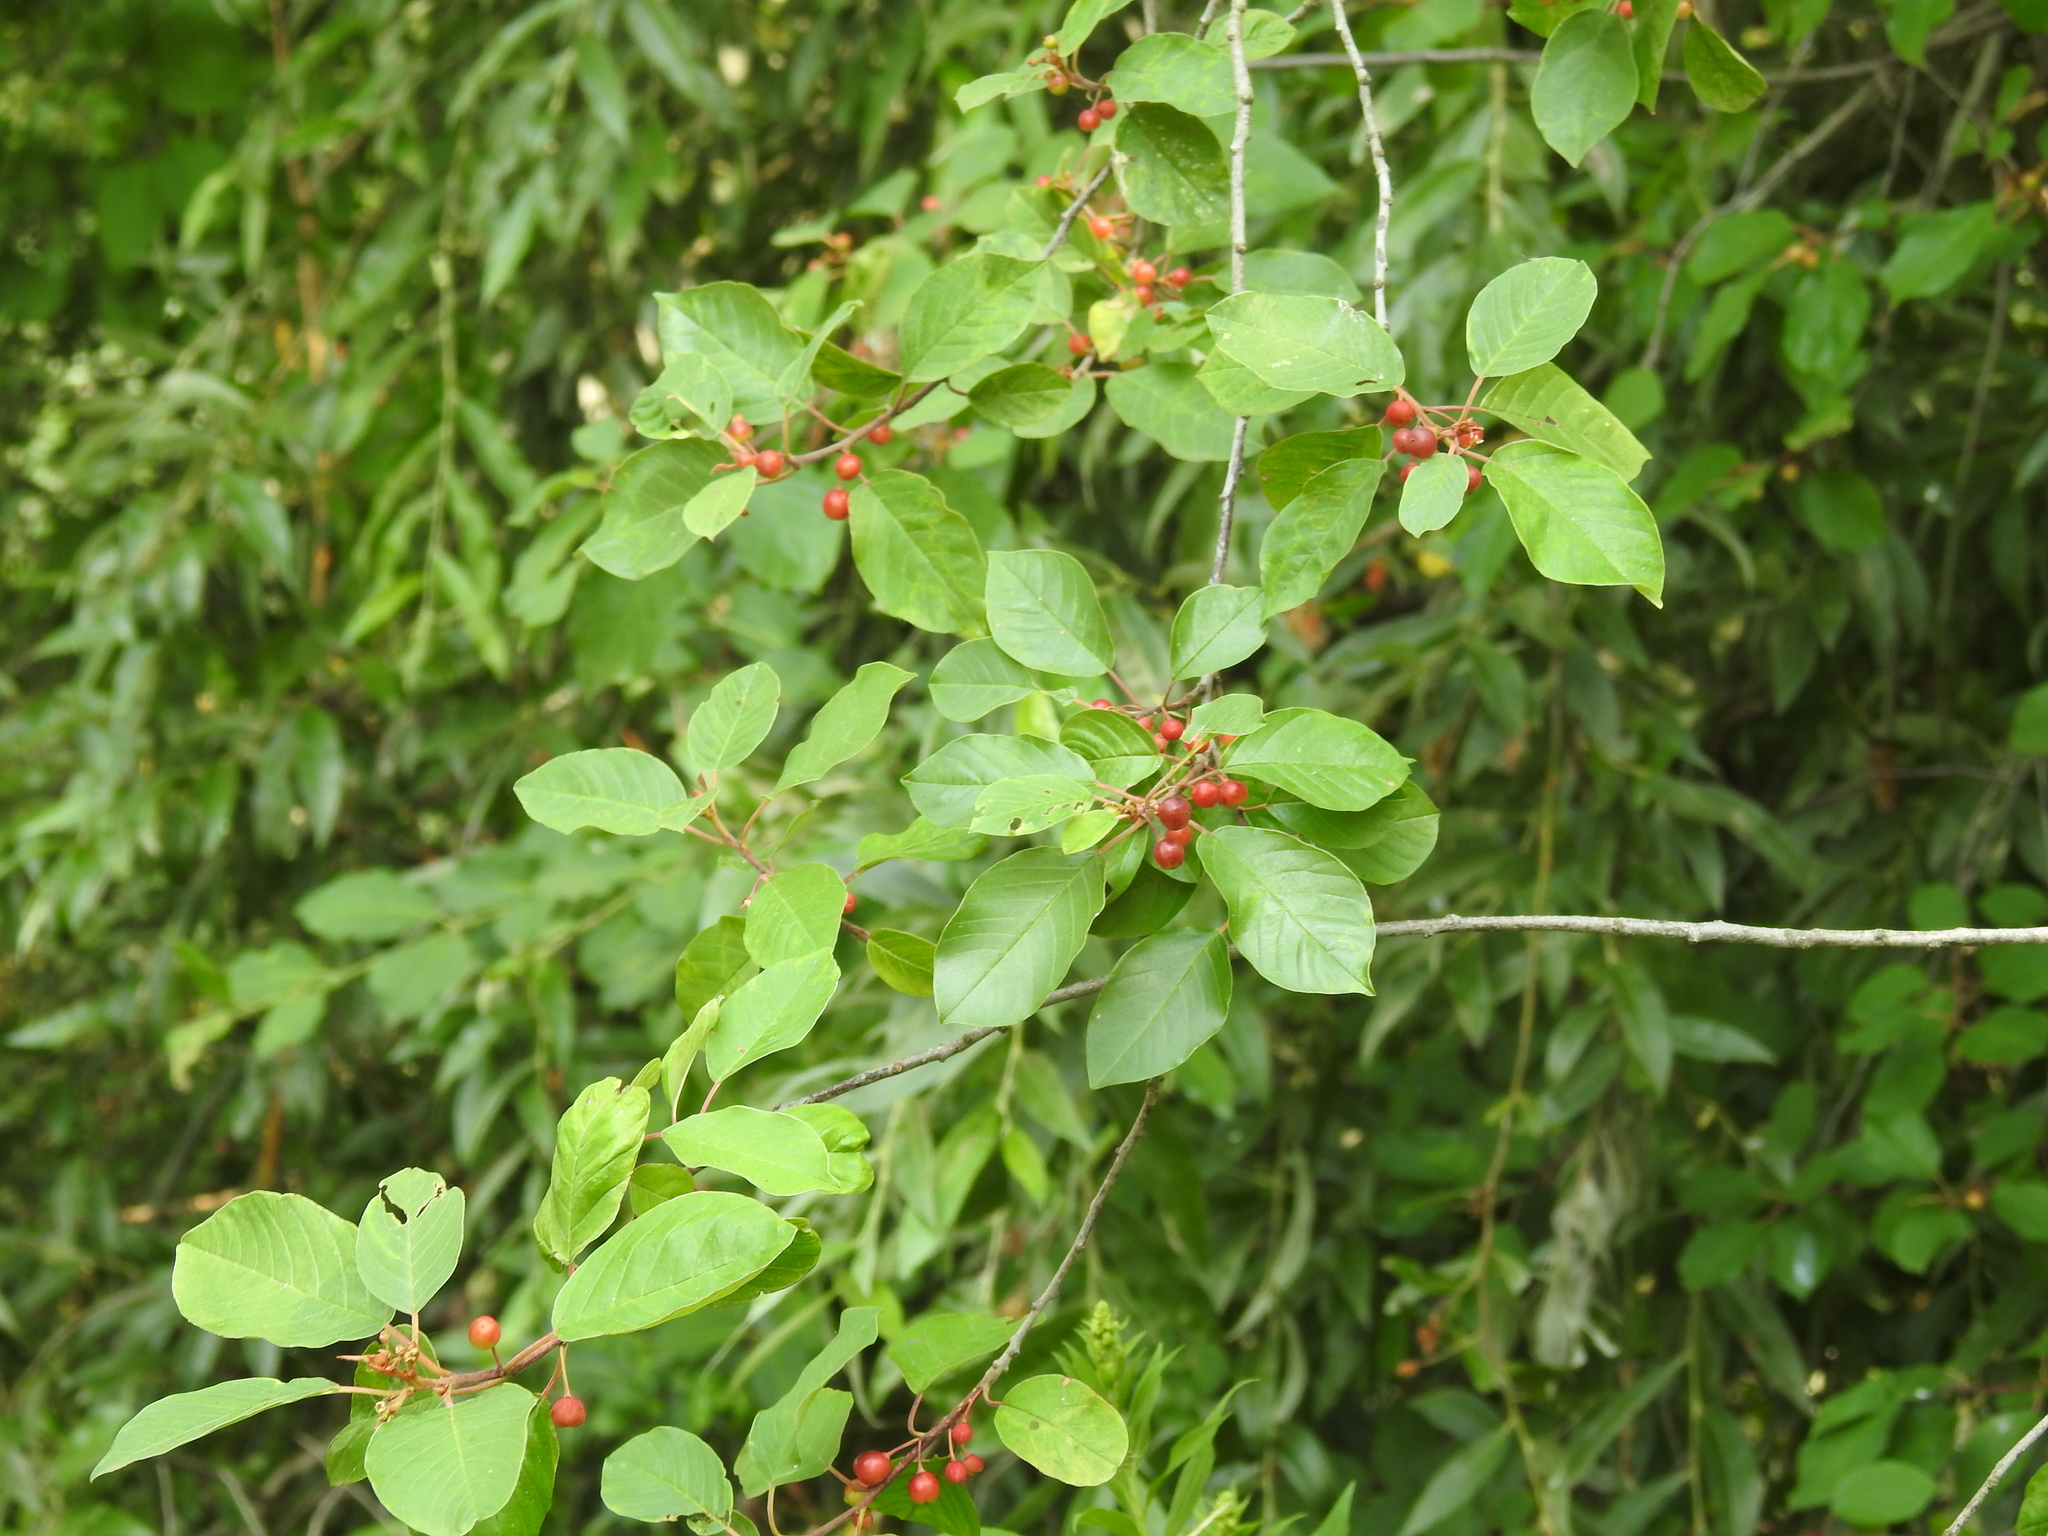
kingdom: Plantae
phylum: Tracheophyta
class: Magnoliopsida
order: Rosales
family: Rhamnaceae
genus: Frangula
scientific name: Frangula alnus
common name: Alder buckthorn
